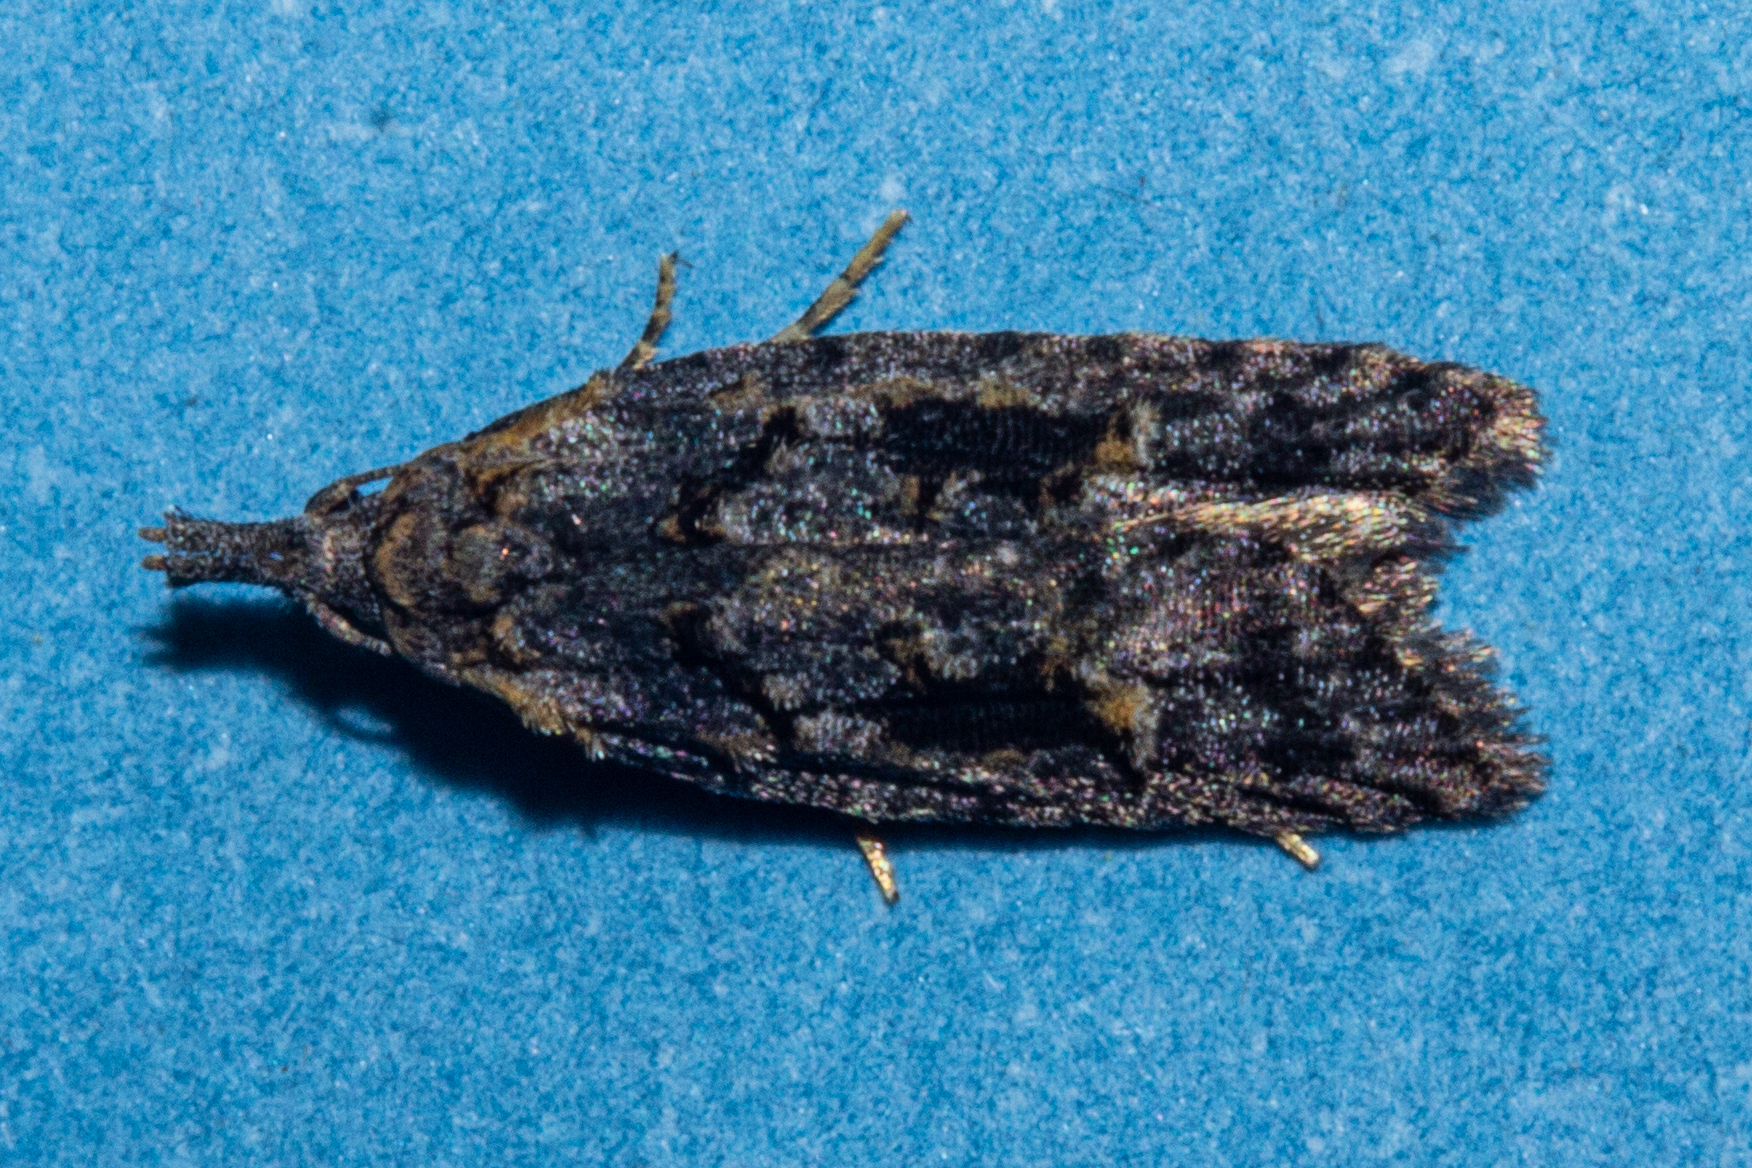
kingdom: Animalia
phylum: Arthropoda
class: Insecta
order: Lepidoptera
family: Carposinidae
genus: Carposina
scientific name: Carposina
